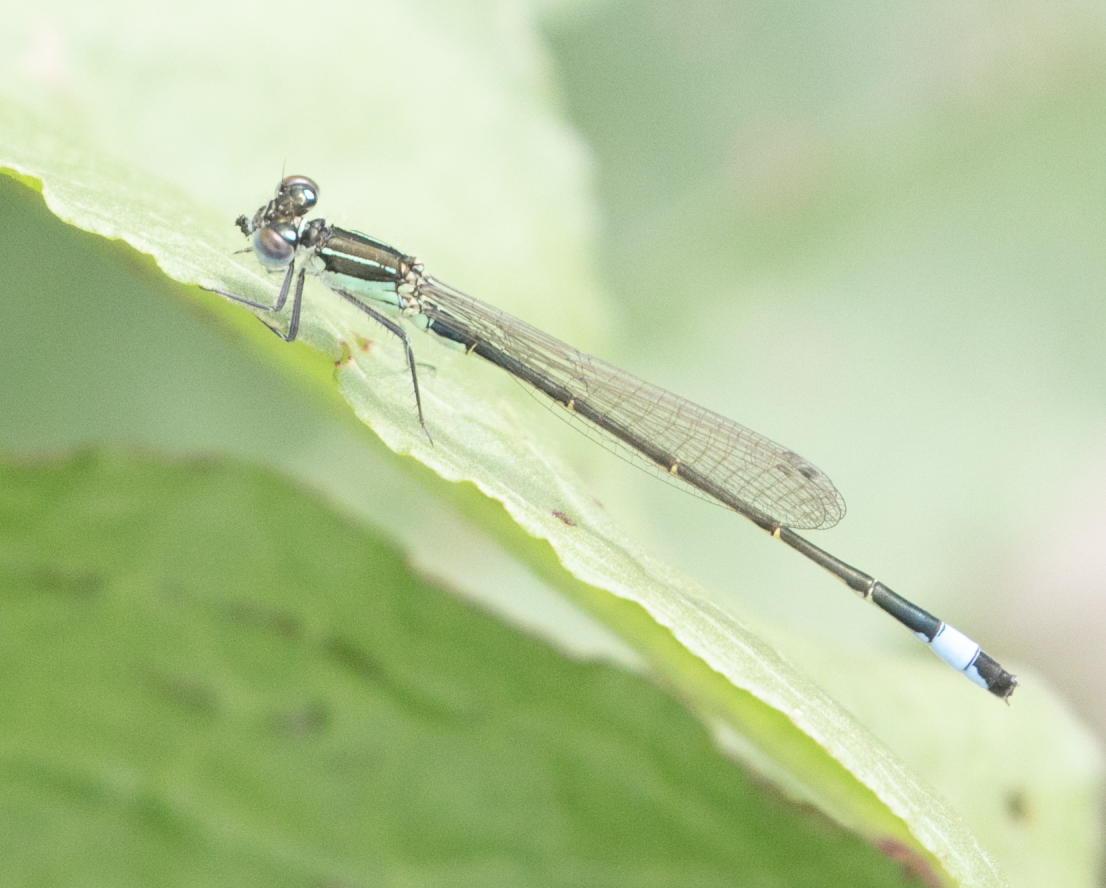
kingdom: Animalia
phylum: Arthropoda
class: Insecta
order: Odonata
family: Coenagrionidae
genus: Ischnura
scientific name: Ischnura elegans
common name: Blue-tailed damselfly
